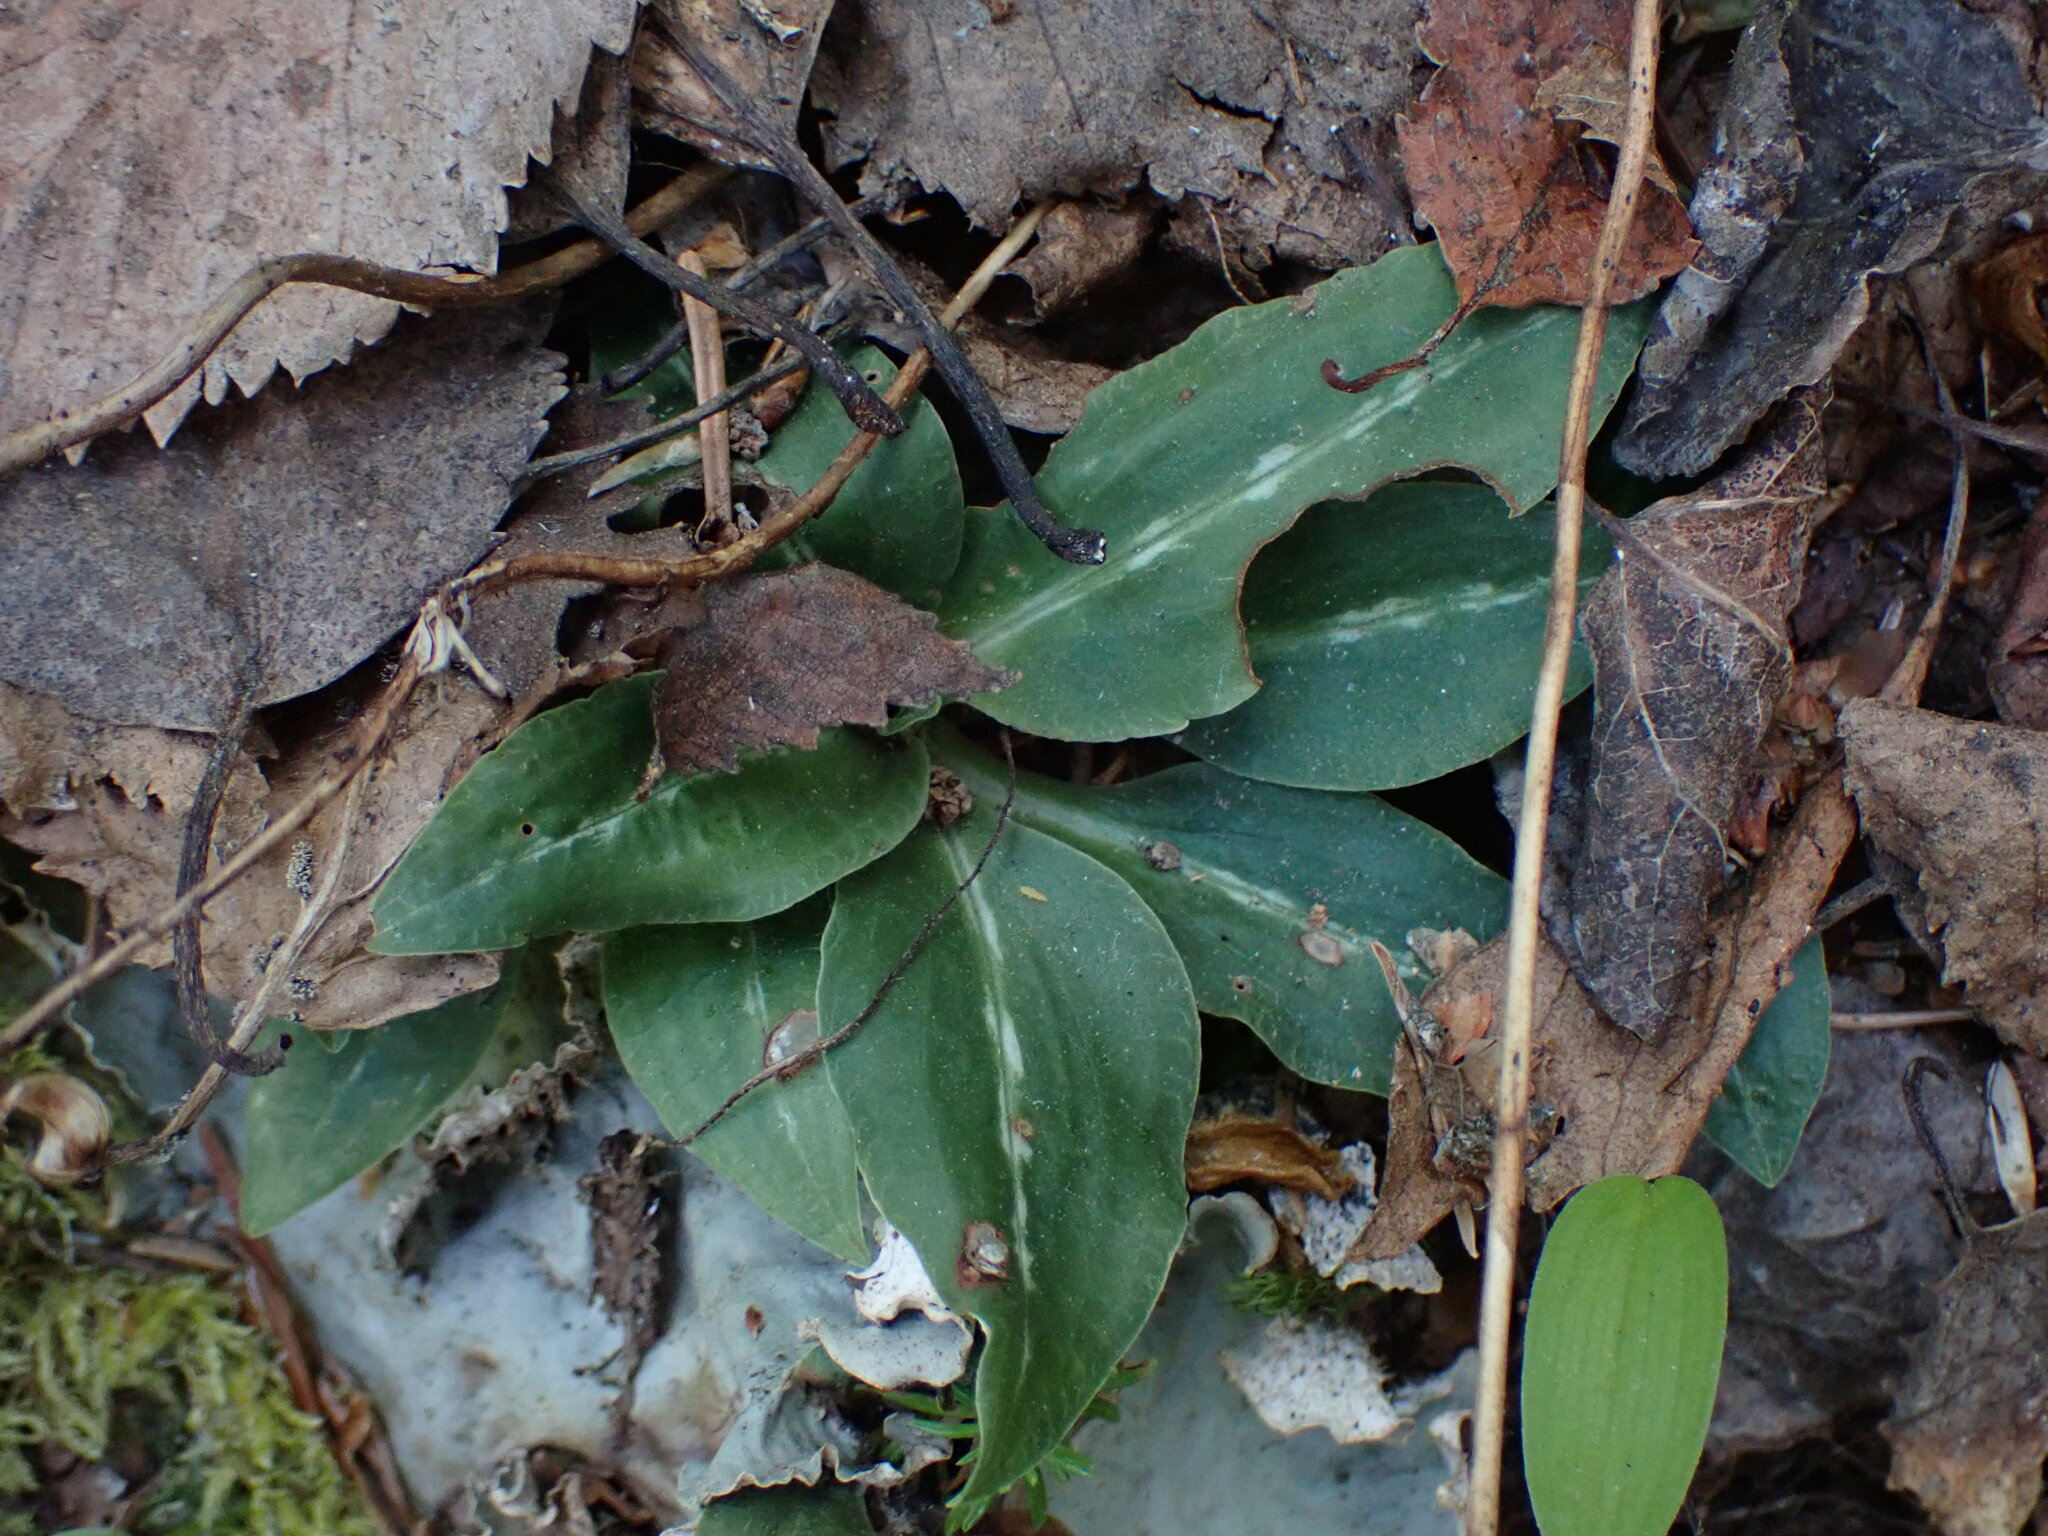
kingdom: Plantae
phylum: Tracheophyta
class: Liliopsida
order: Asparagales
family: Orchidaceae
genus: Goodyera
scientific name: Goodyera oblongifolia
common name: Giant rattlesnake-plantain
